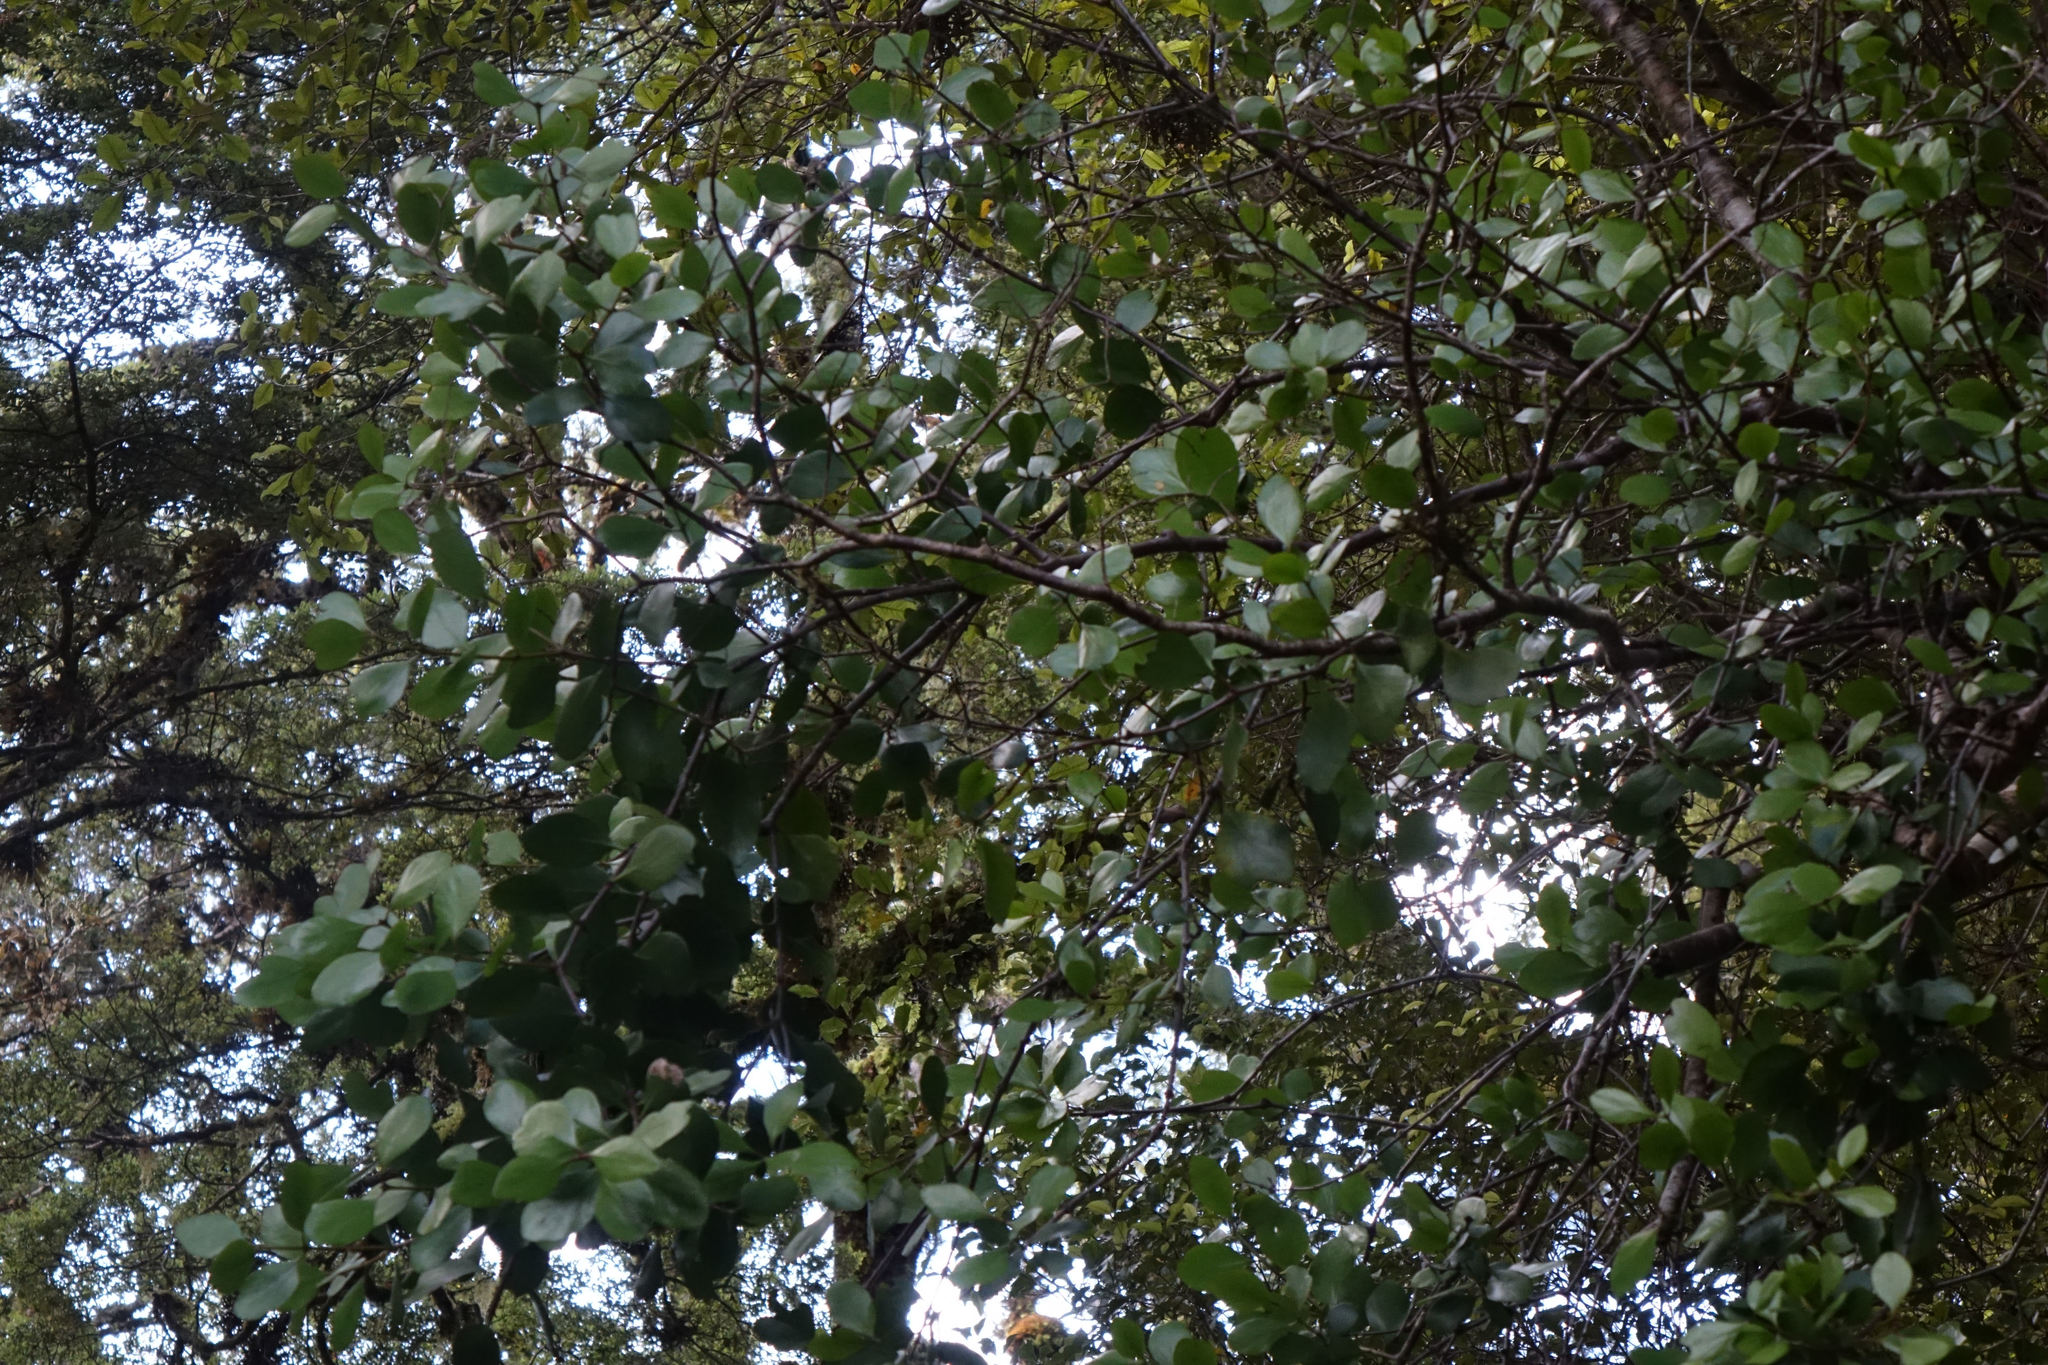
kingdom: Plantae
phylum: Tracheophyta
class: Magnoliopsida
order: Santalales
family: Loranthaceae
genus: Peraxilla
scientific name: Peraxilla colensoi
